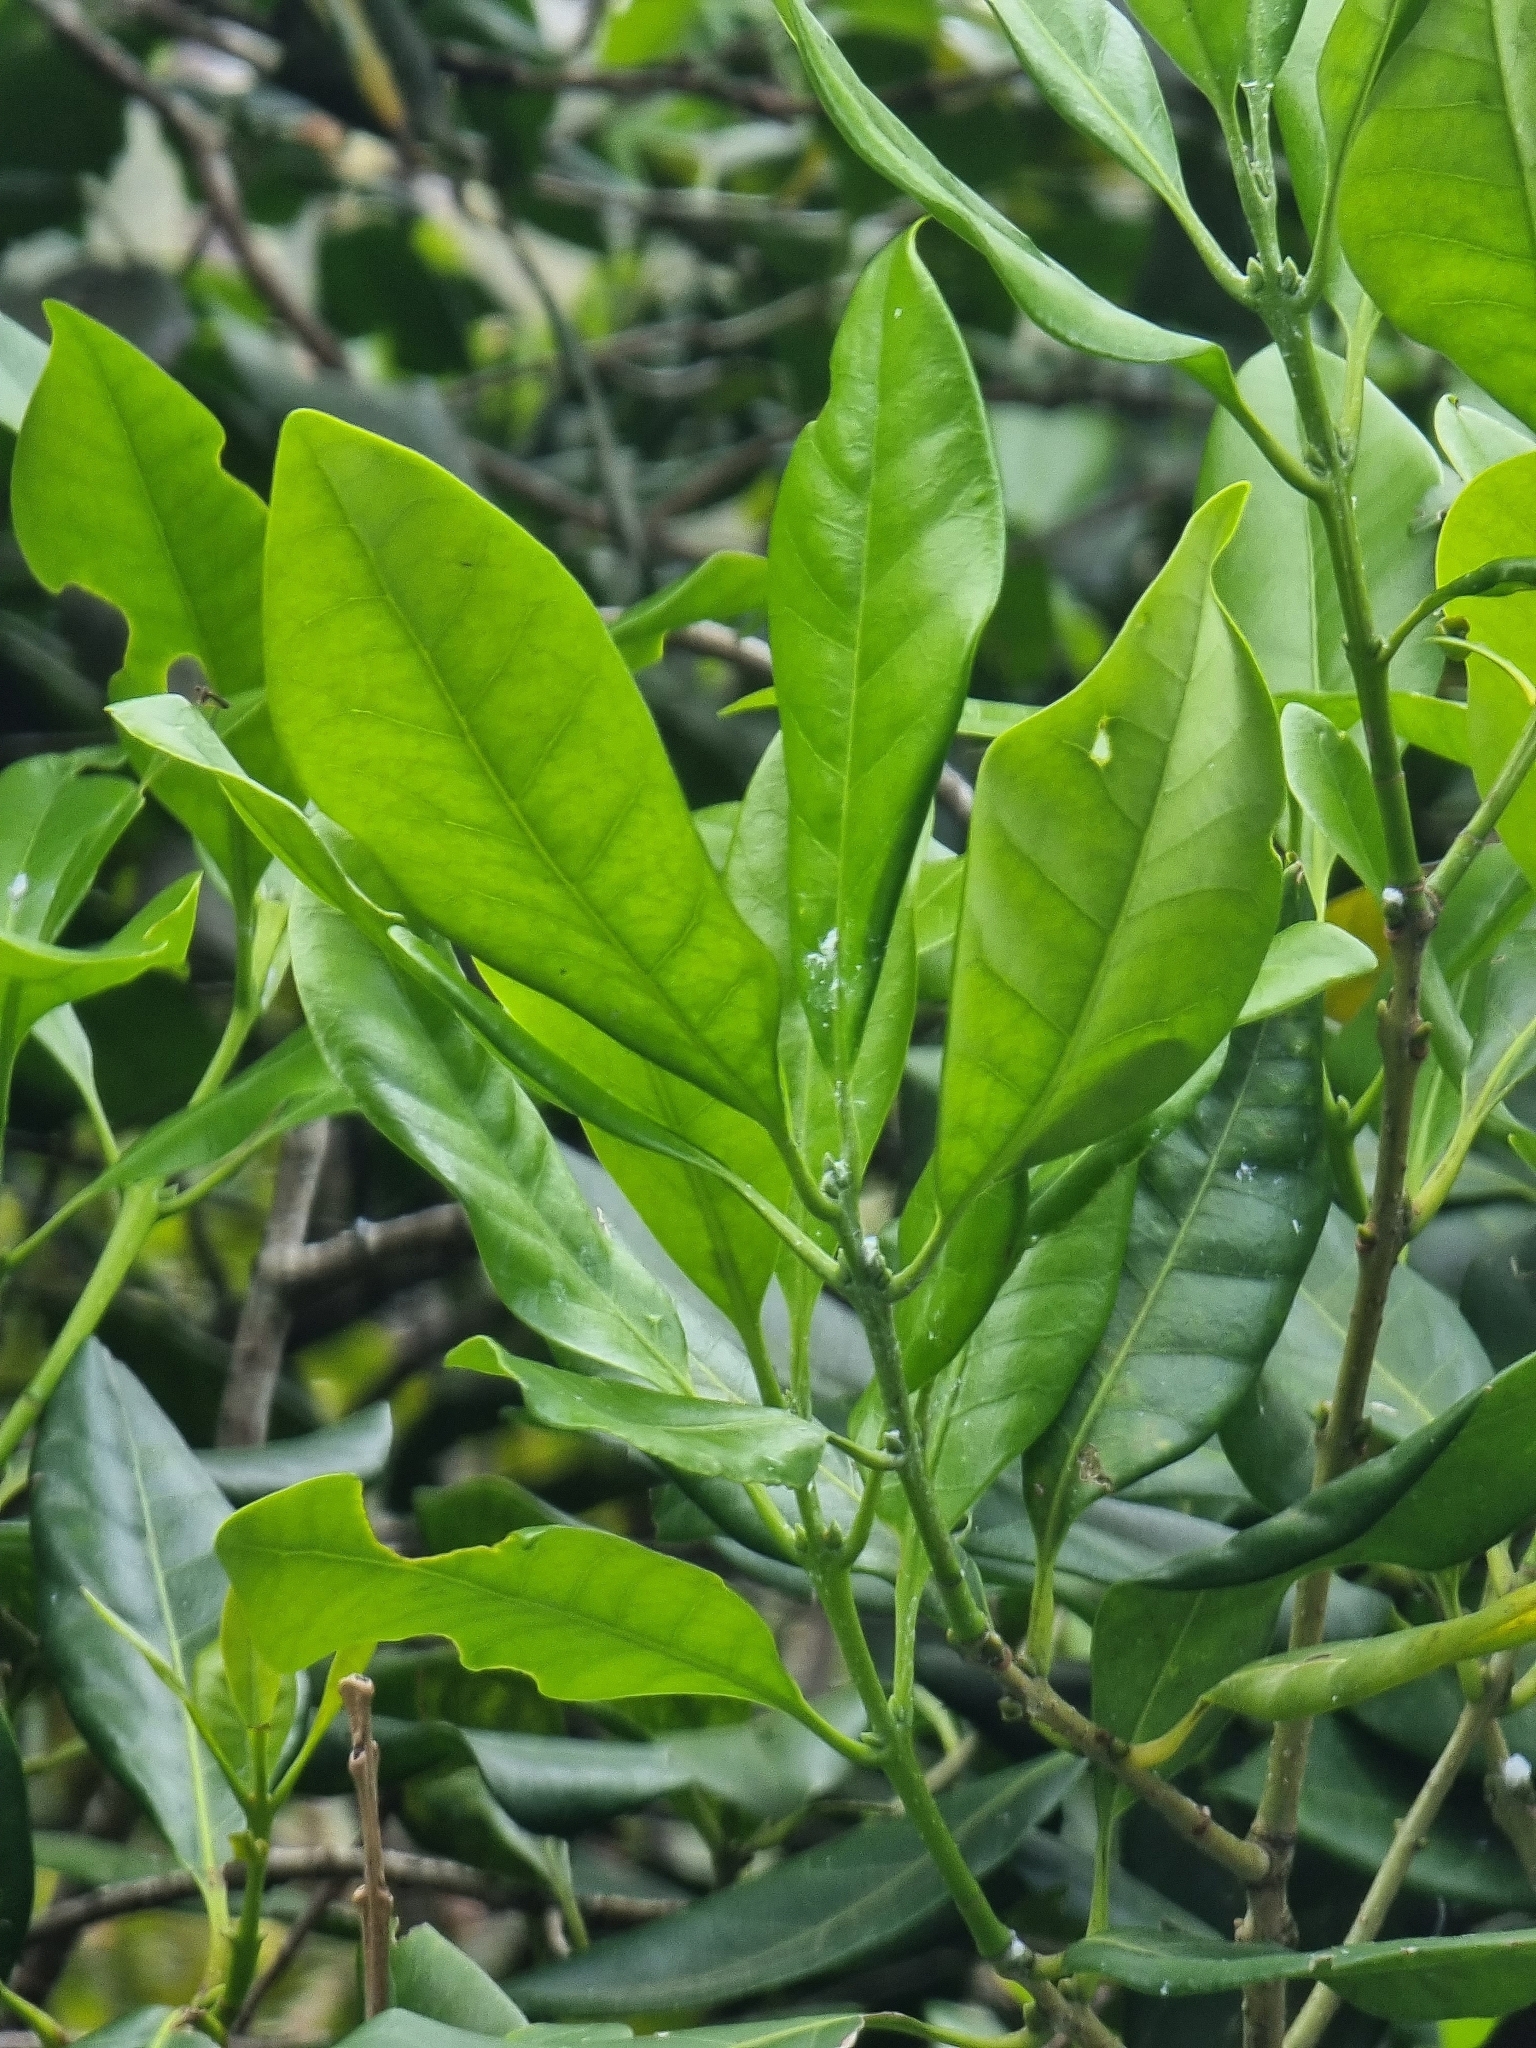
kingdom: Plantae
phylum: Tracheophyta
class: Magnoliopsida
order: Lamiales
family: Oleaceae
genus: Picconia
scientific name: Picconia excelsa
